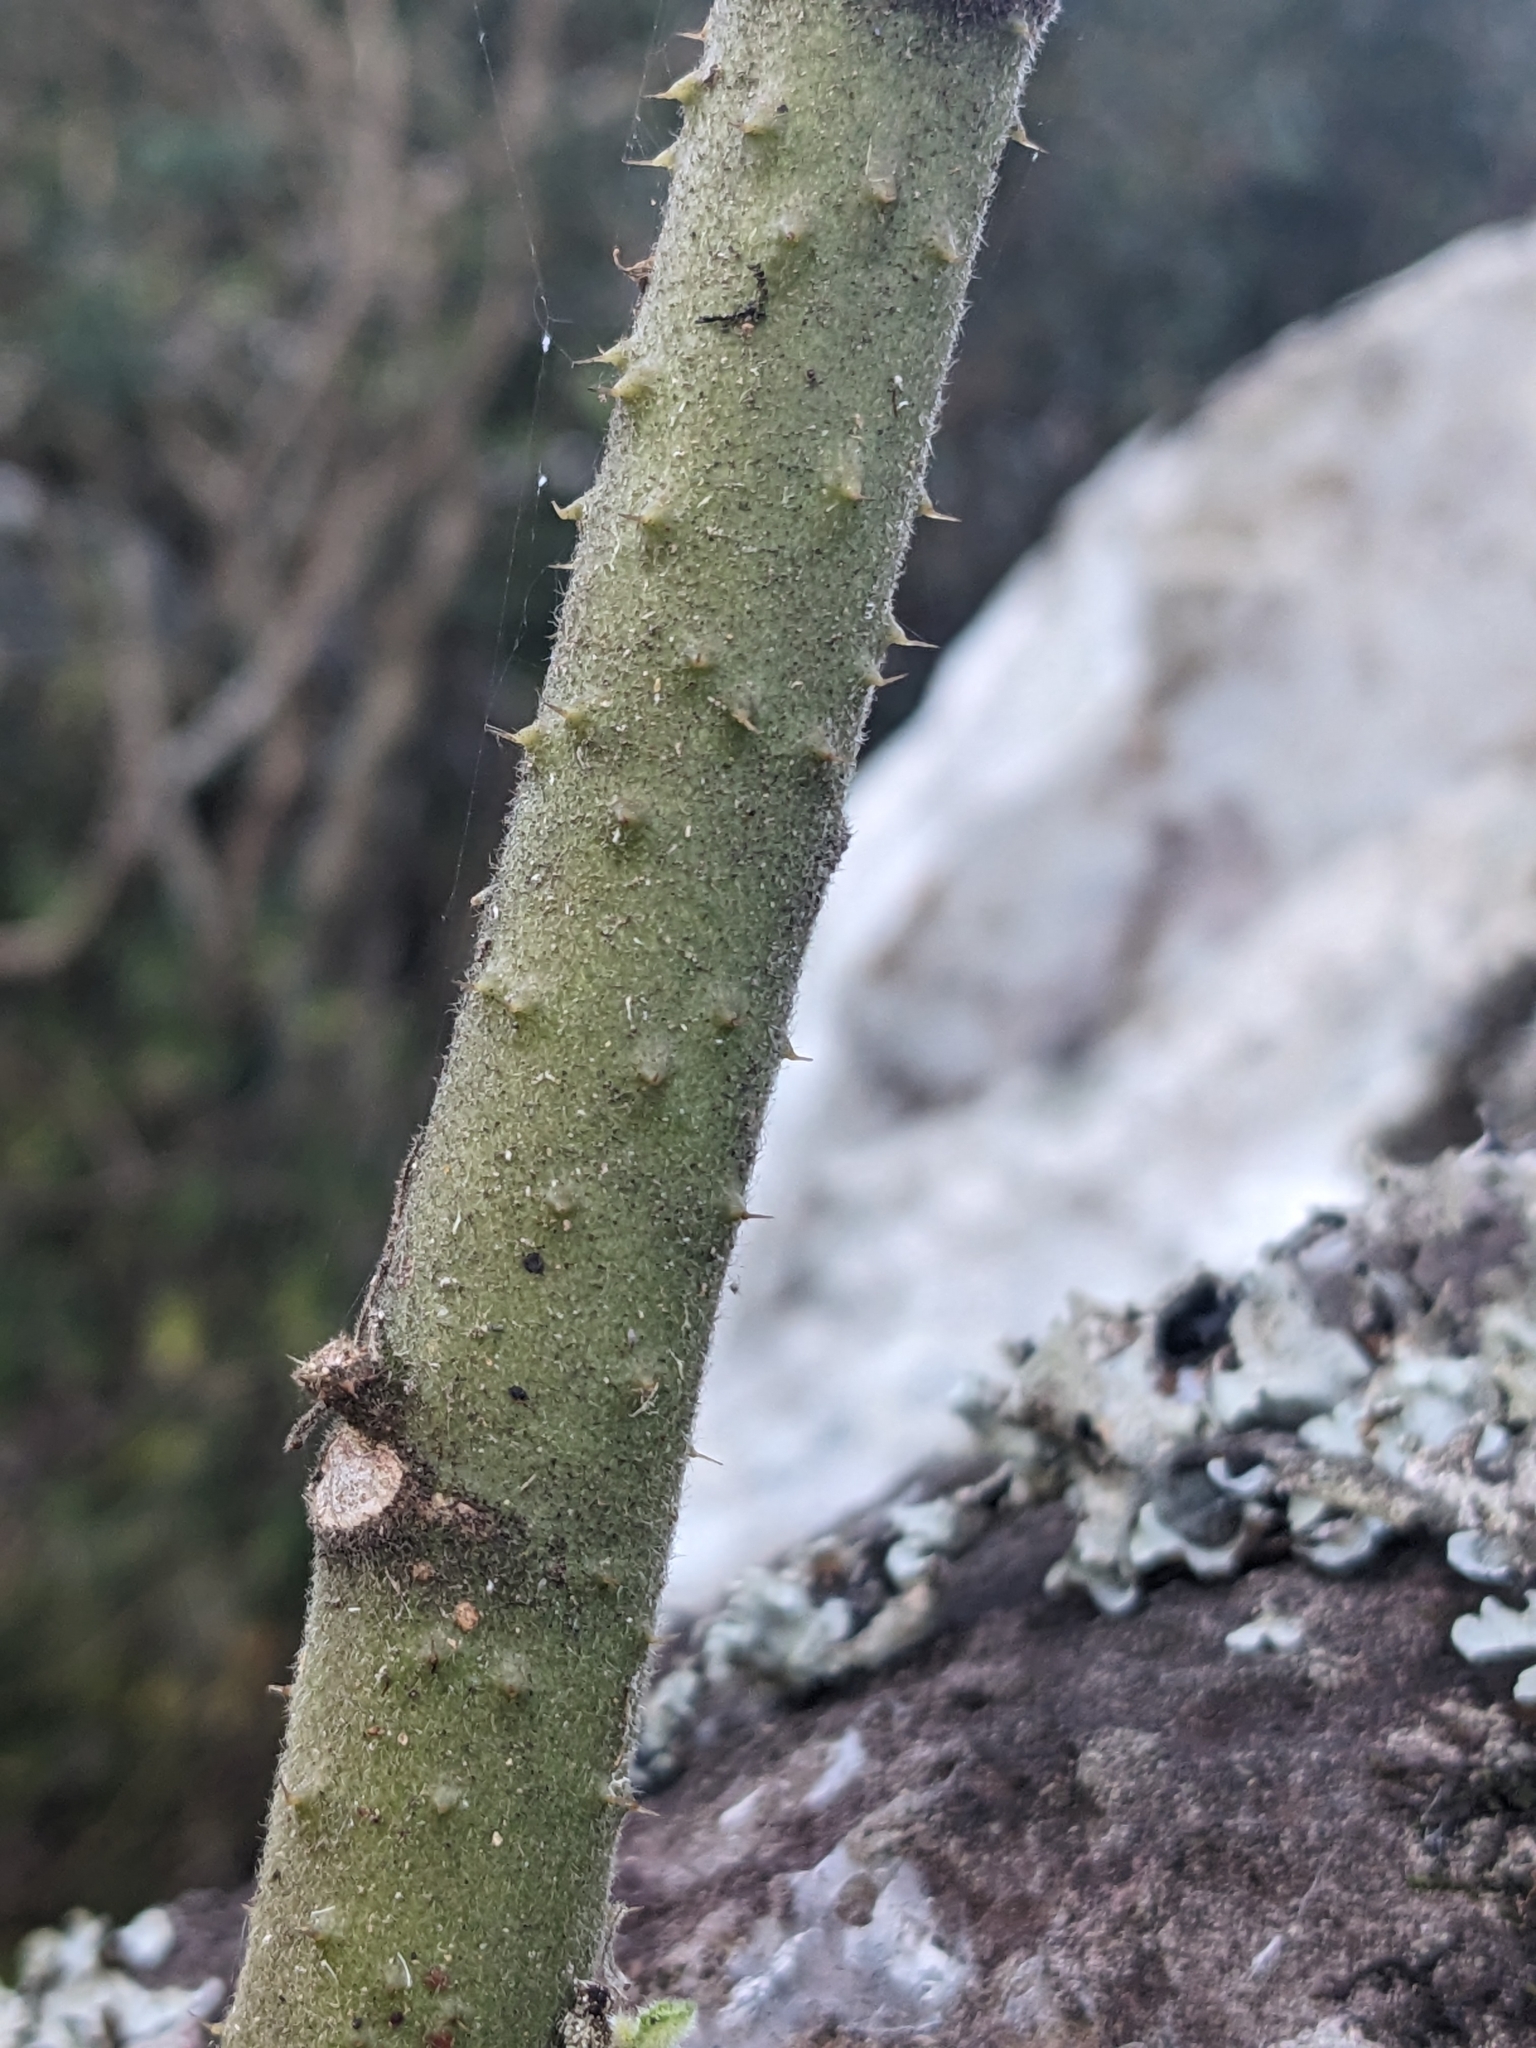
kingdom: Plantae
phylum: Tracheophyta
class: Magnoliopsida
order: Malvales
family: Malvaceae
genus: Hibiscus
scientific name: Hibiscus splendens
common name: Hollyhock-tree
